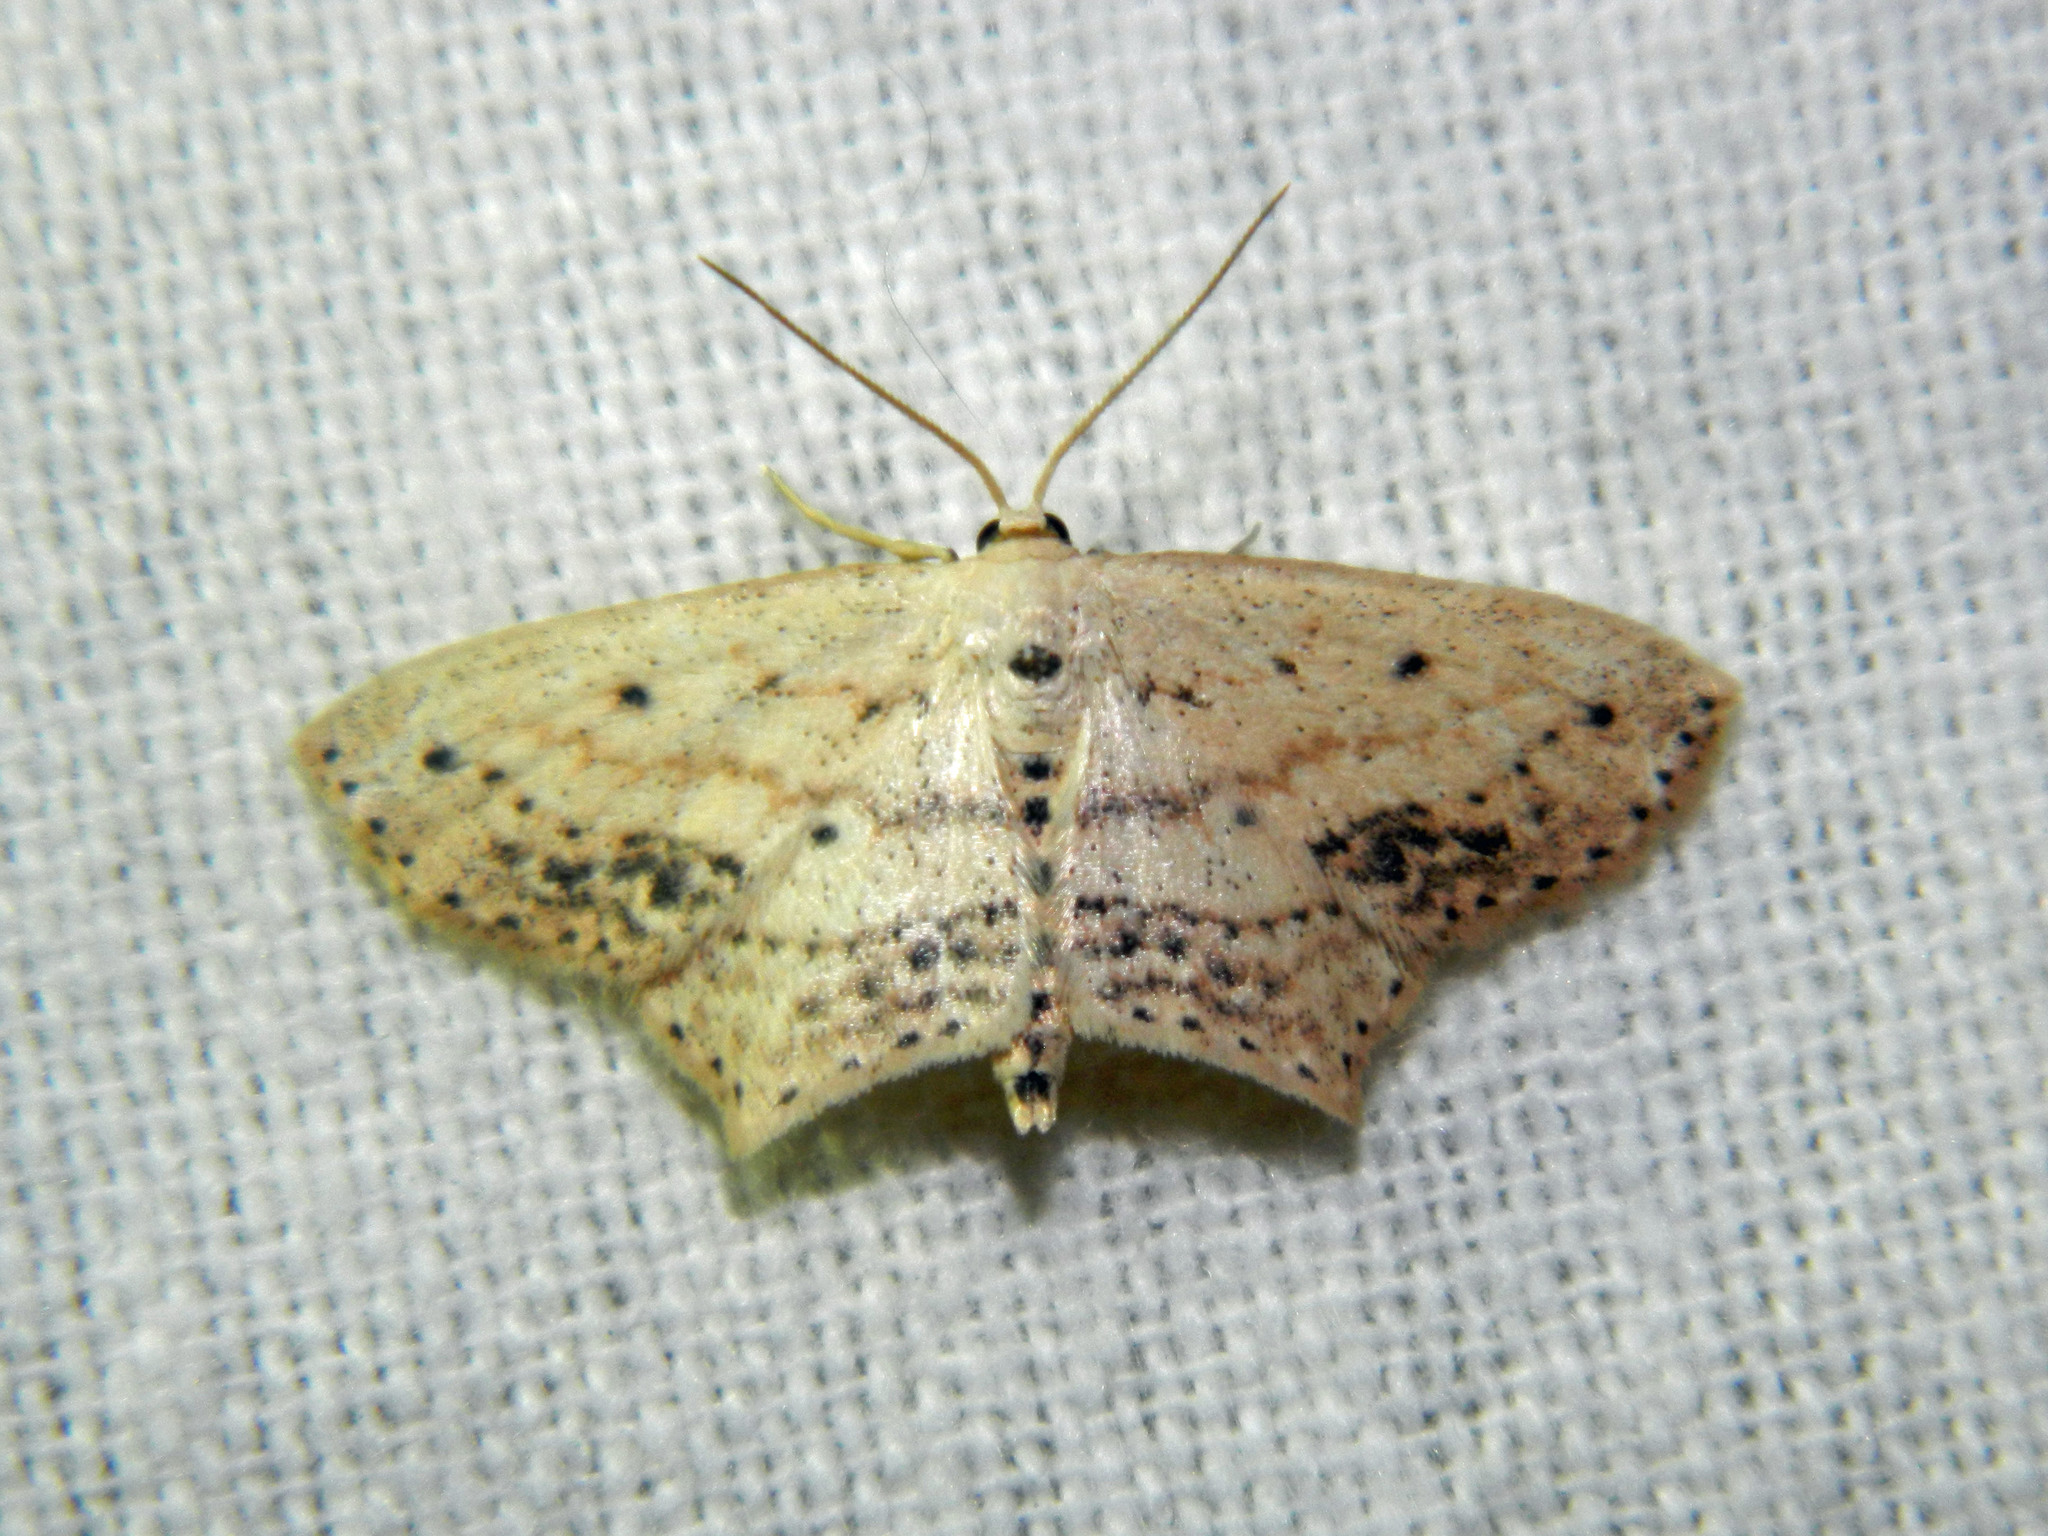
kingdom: Animalia
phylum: Arthropoda
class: Insecta
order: Lepidoptera
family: Geometridae
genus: Scopula
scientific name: Scopula cacuminaria
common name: Frosted tan wave
